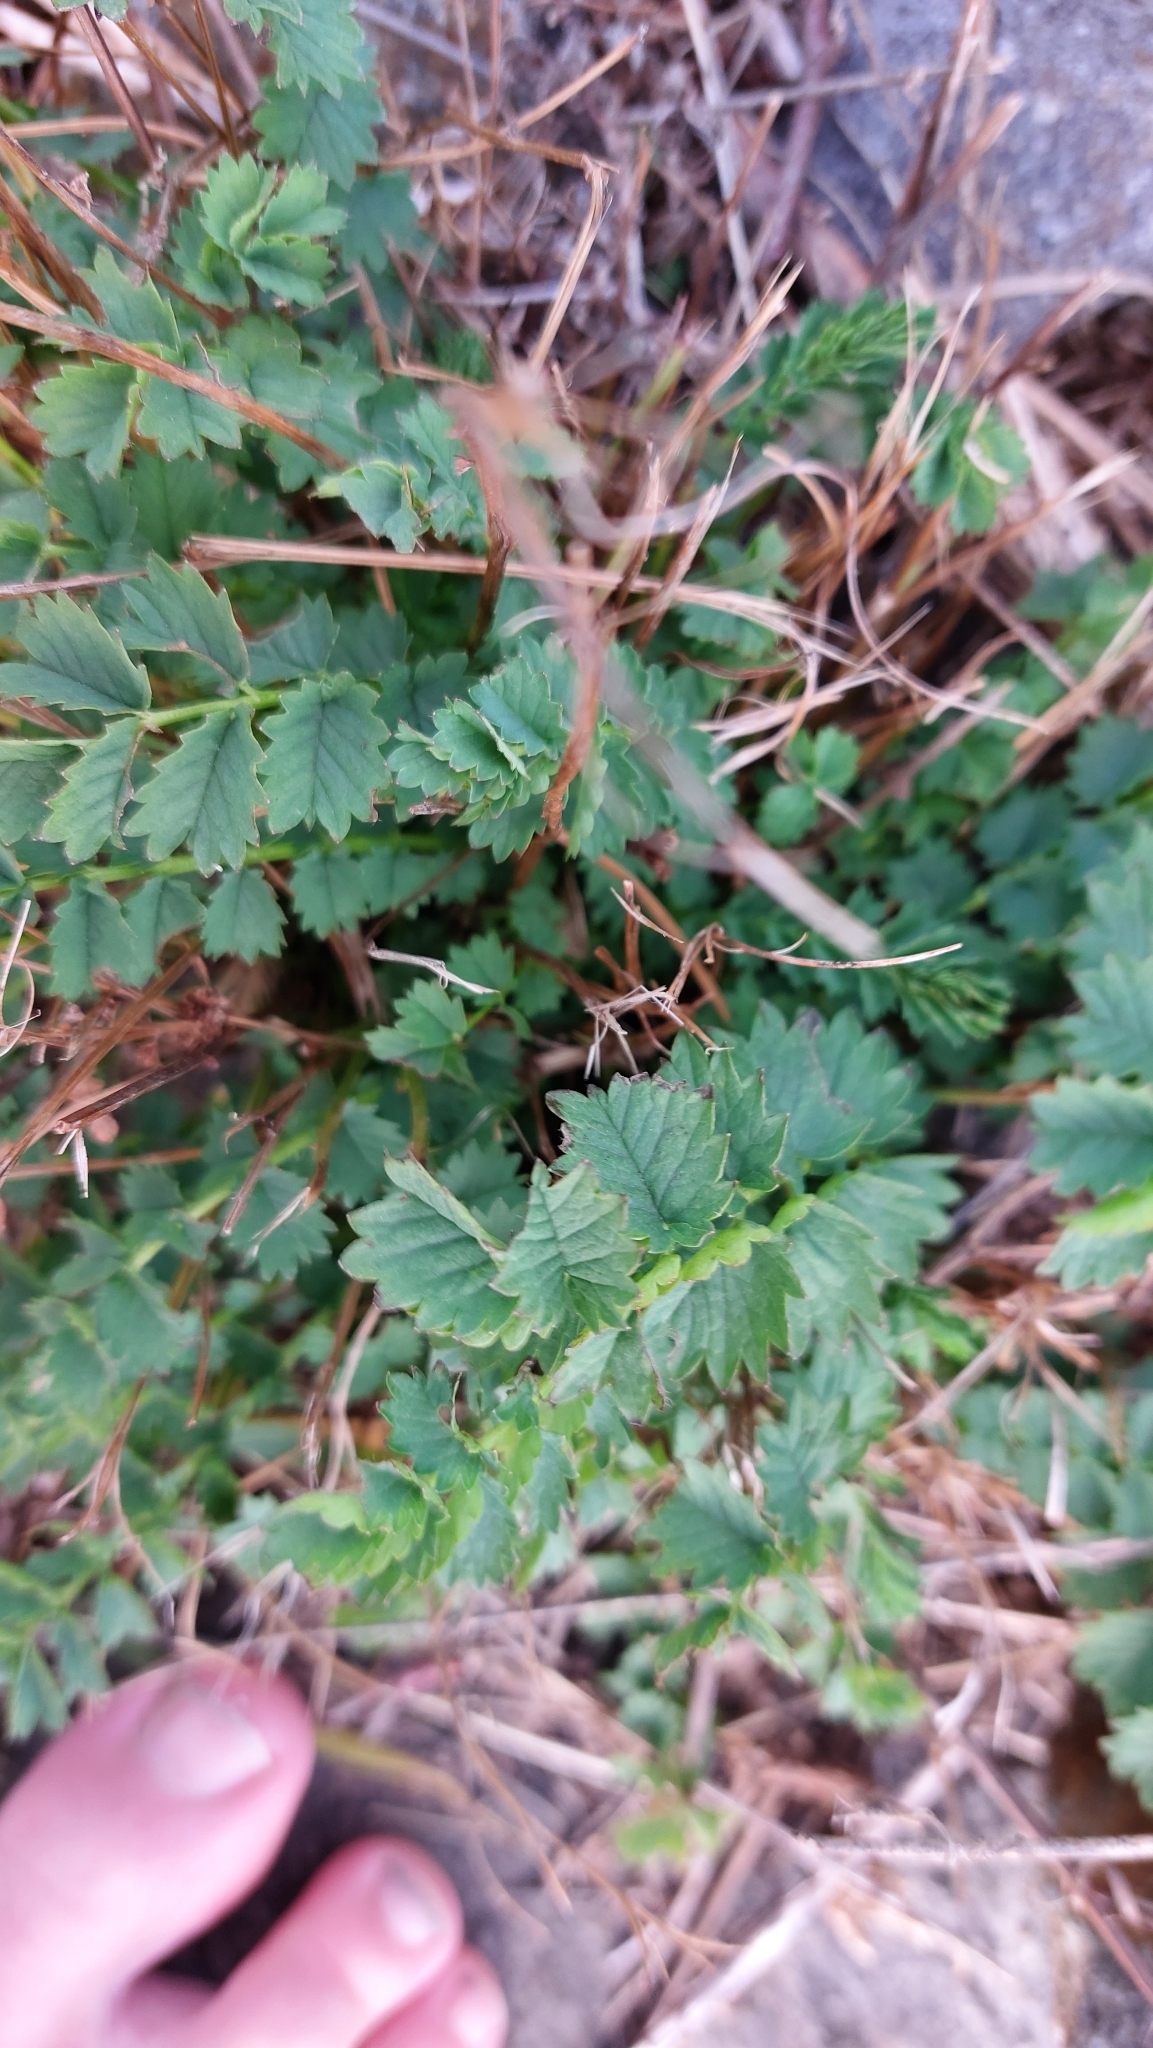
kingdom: Plantae
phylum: Tracheophyta
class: Magnoliopsida
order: Rosales
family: Rosaceae
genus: Poterium
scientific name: Poterium sanguisorba
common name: Salad burnet
